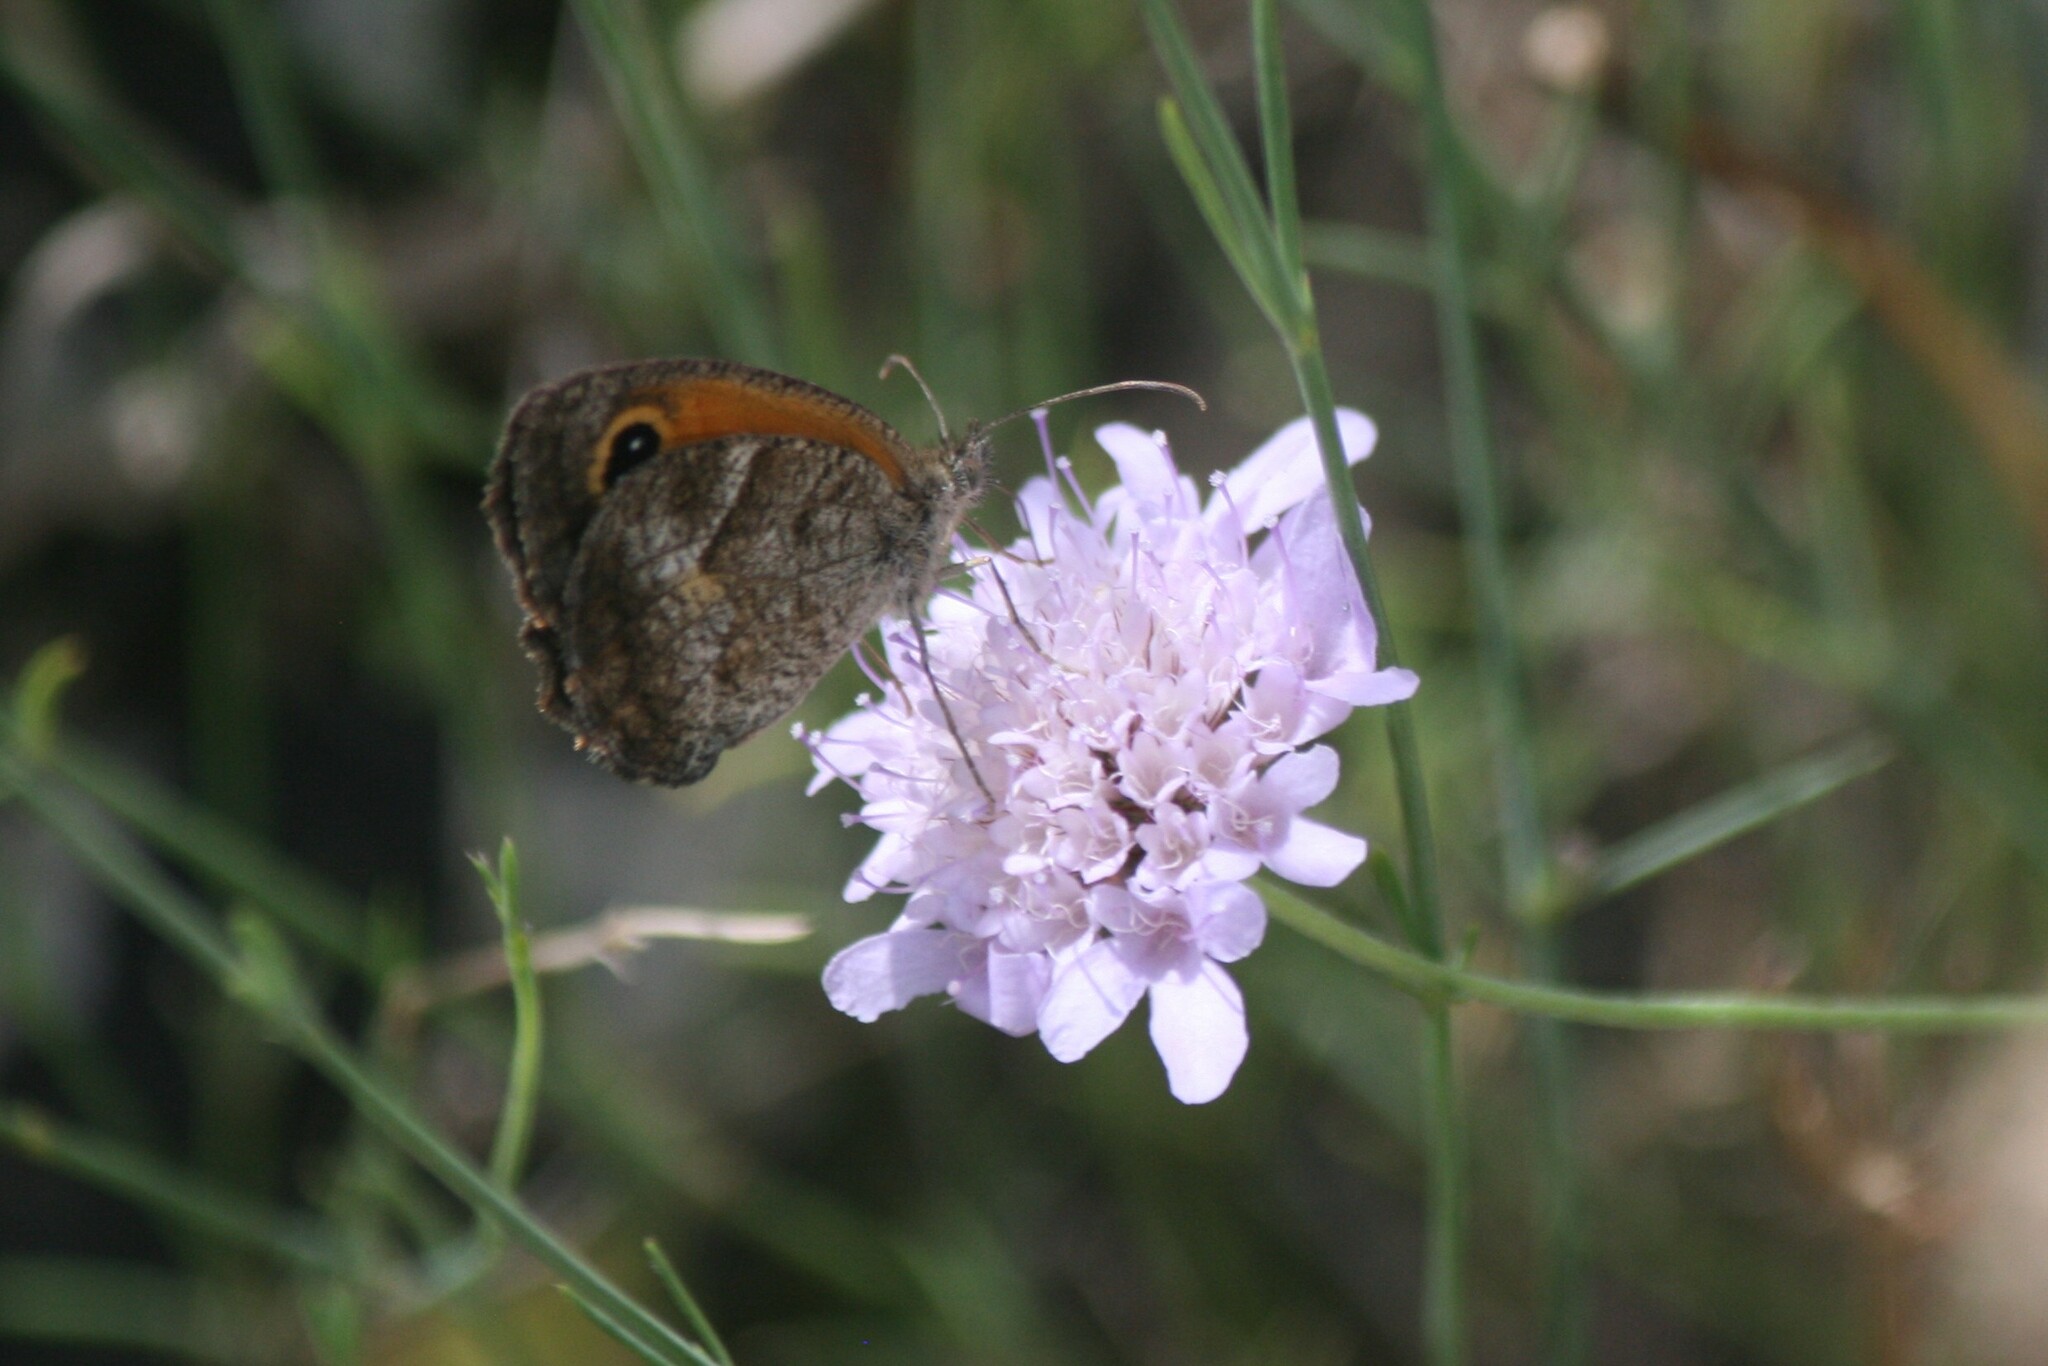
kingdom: Animalia
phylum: Arthropoda
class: Insecta
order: Lepidoptera
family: Nymphalidae
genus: Pyronia
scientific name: Pyronia cecilia
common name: Southern gatekeeper
